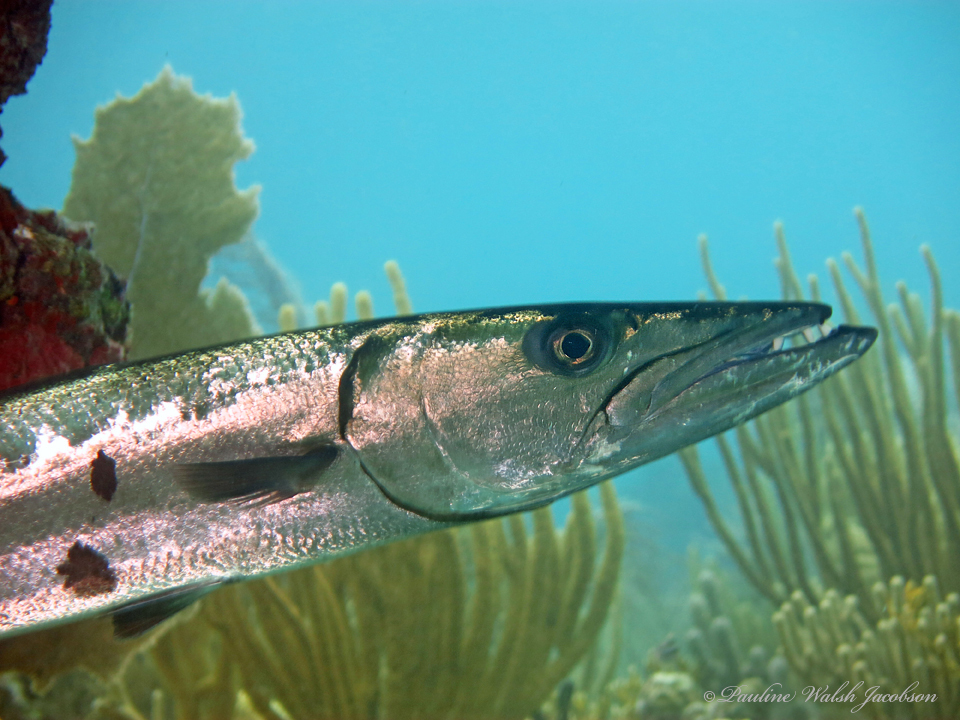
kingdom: Animalia
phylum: Chordata
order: Perciformes
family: Sphyraenidae
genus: Sphyraena
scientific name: Sphyraena barracuda
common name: Great barracuda
